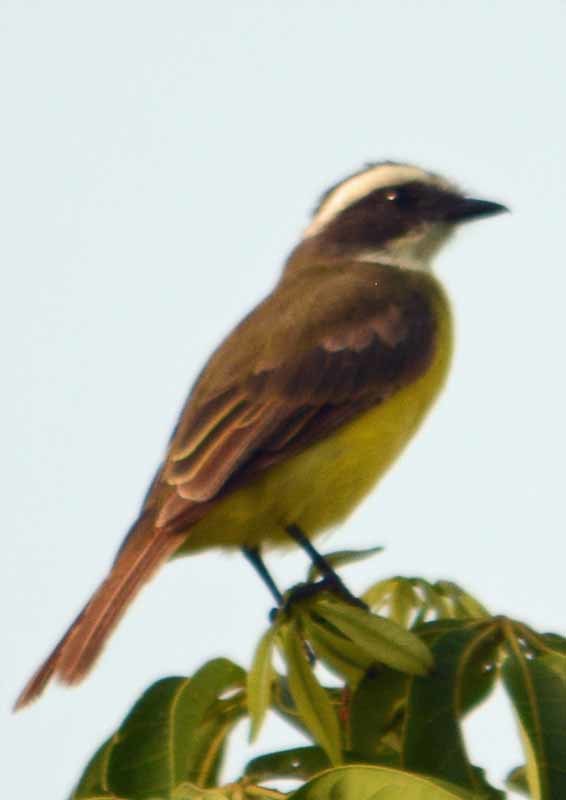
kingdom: Animalia
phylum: Chordata
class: Aves
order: Passeriformes
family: Tyrannidae
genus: Myiozetetes
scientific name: Myiozetetes similis
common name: Social flycatcher
